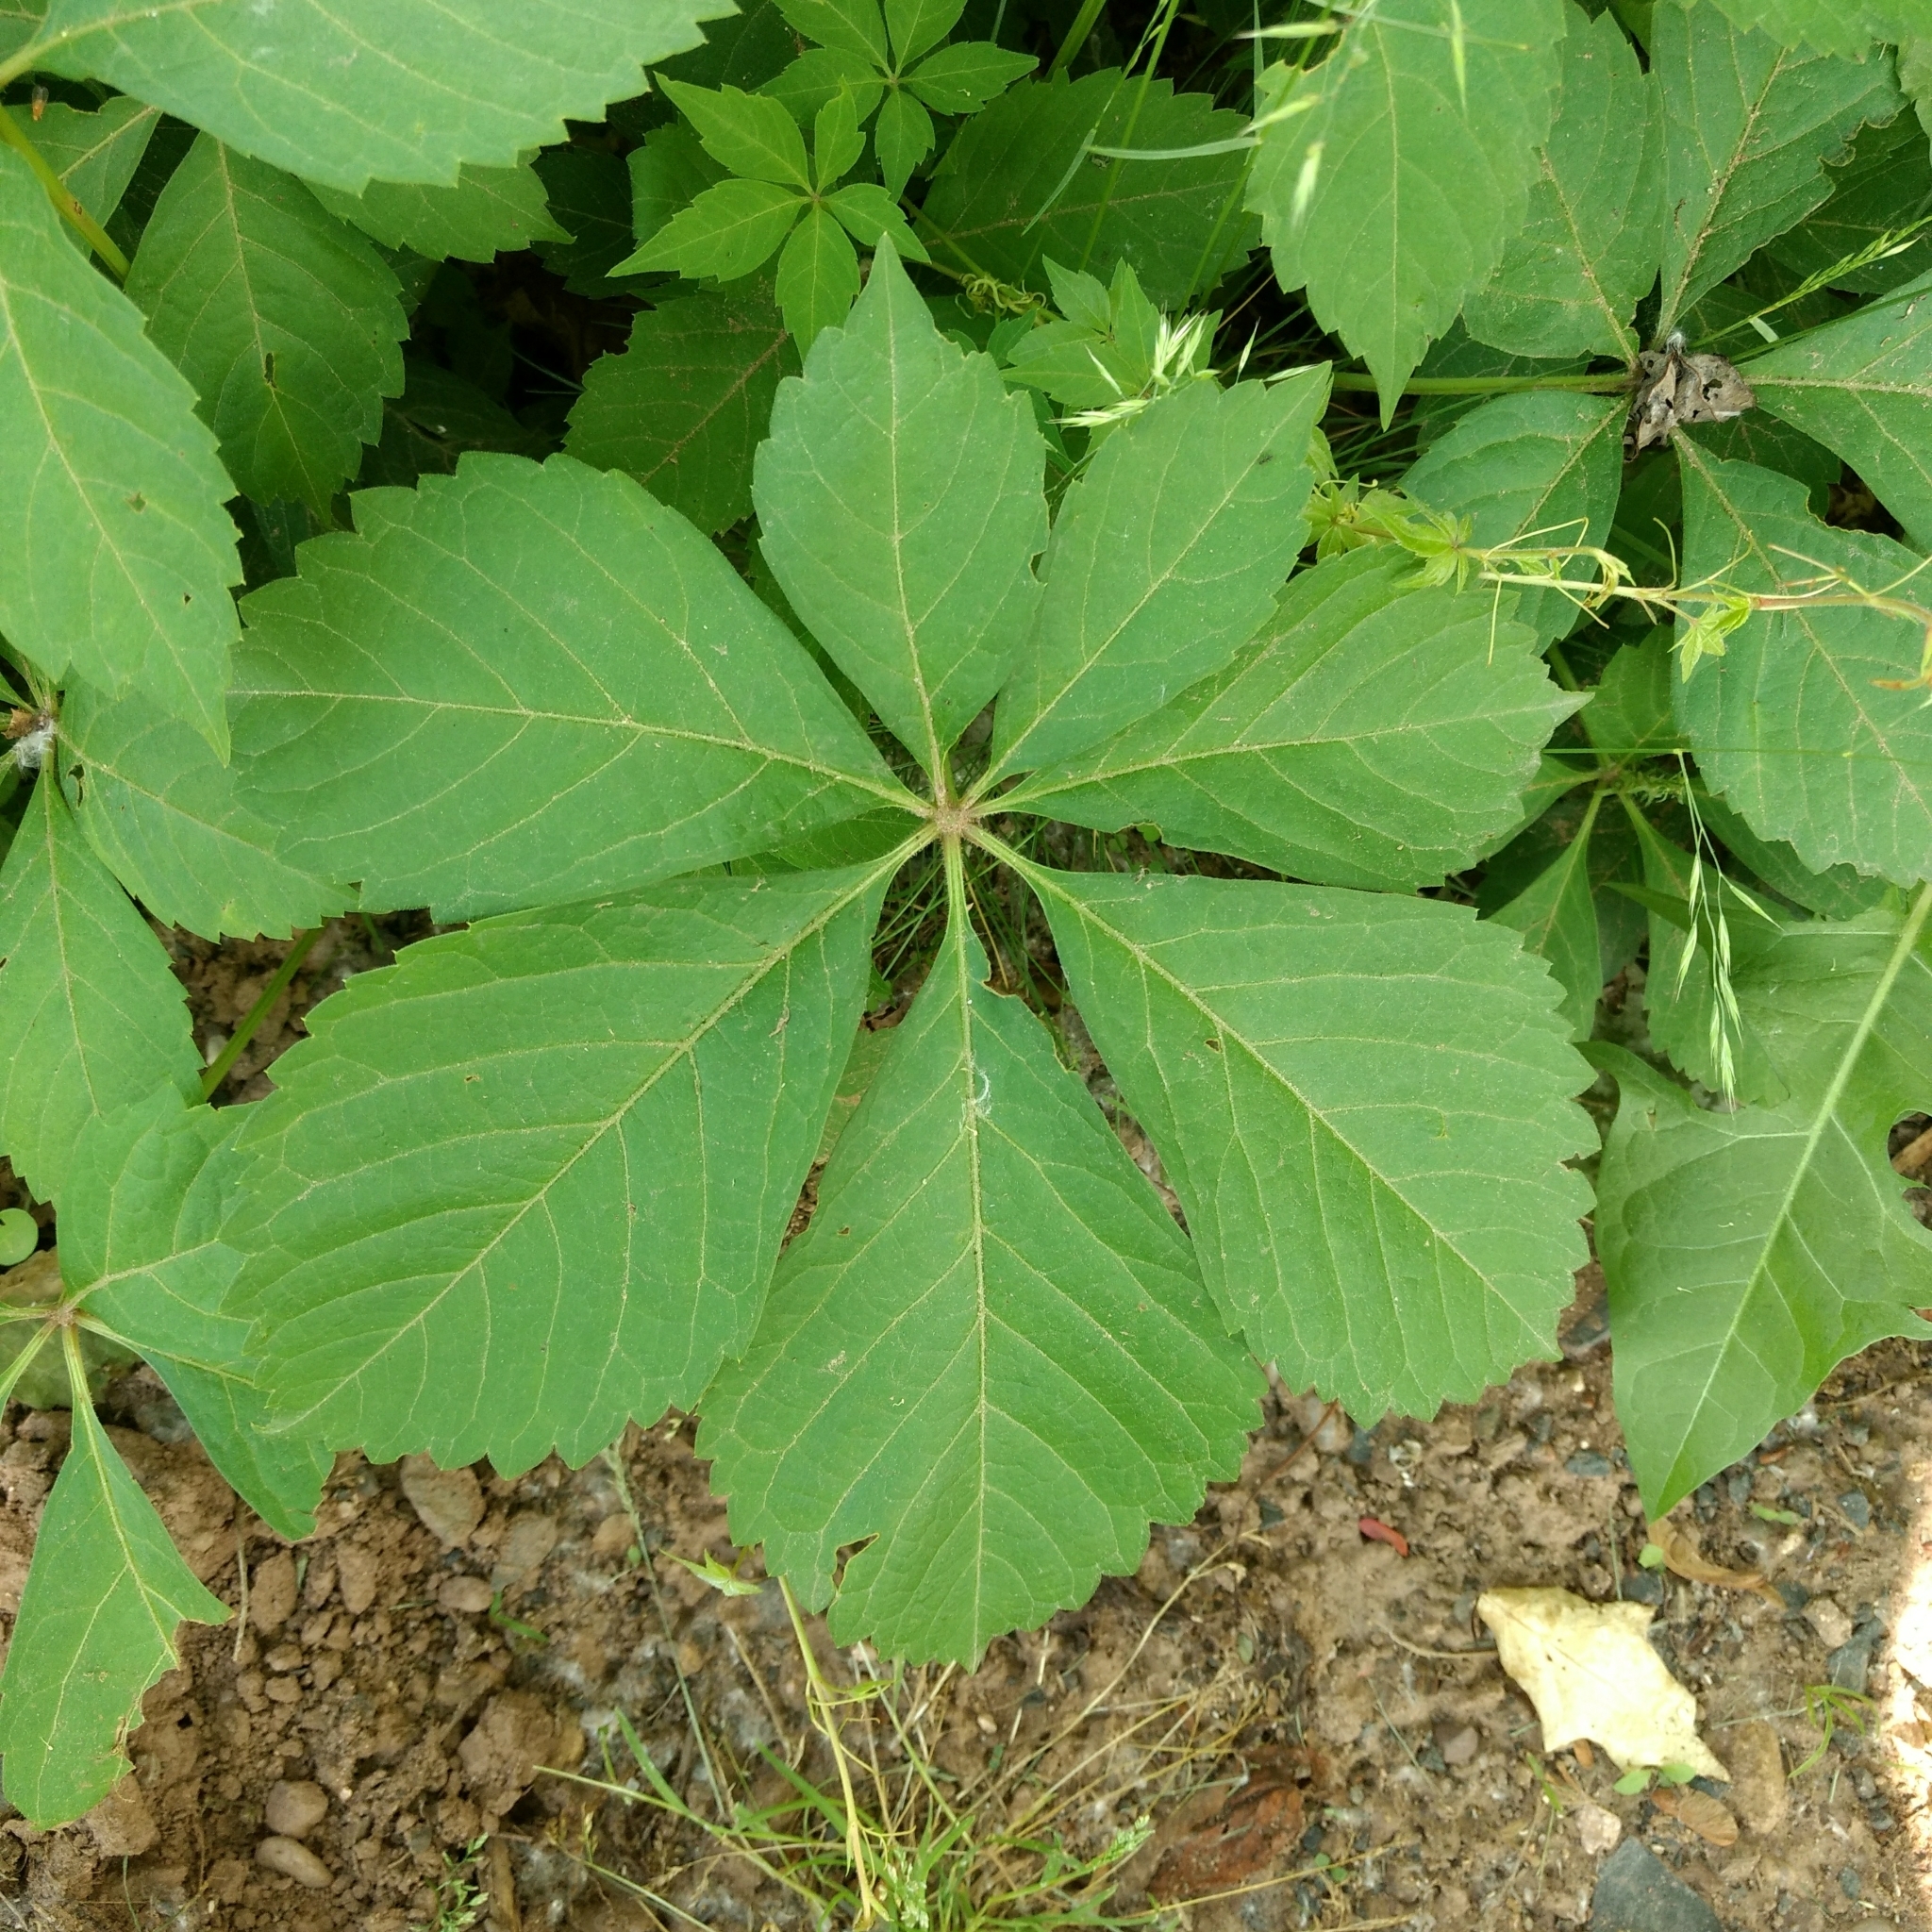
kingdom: Plantae
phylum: Tracheophyta
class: Magnoliopsida
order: Vitales
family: Vitaceae
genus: Parthenocissus
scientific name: Parthenocissus quinquefolia
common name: Virginia-creeper
